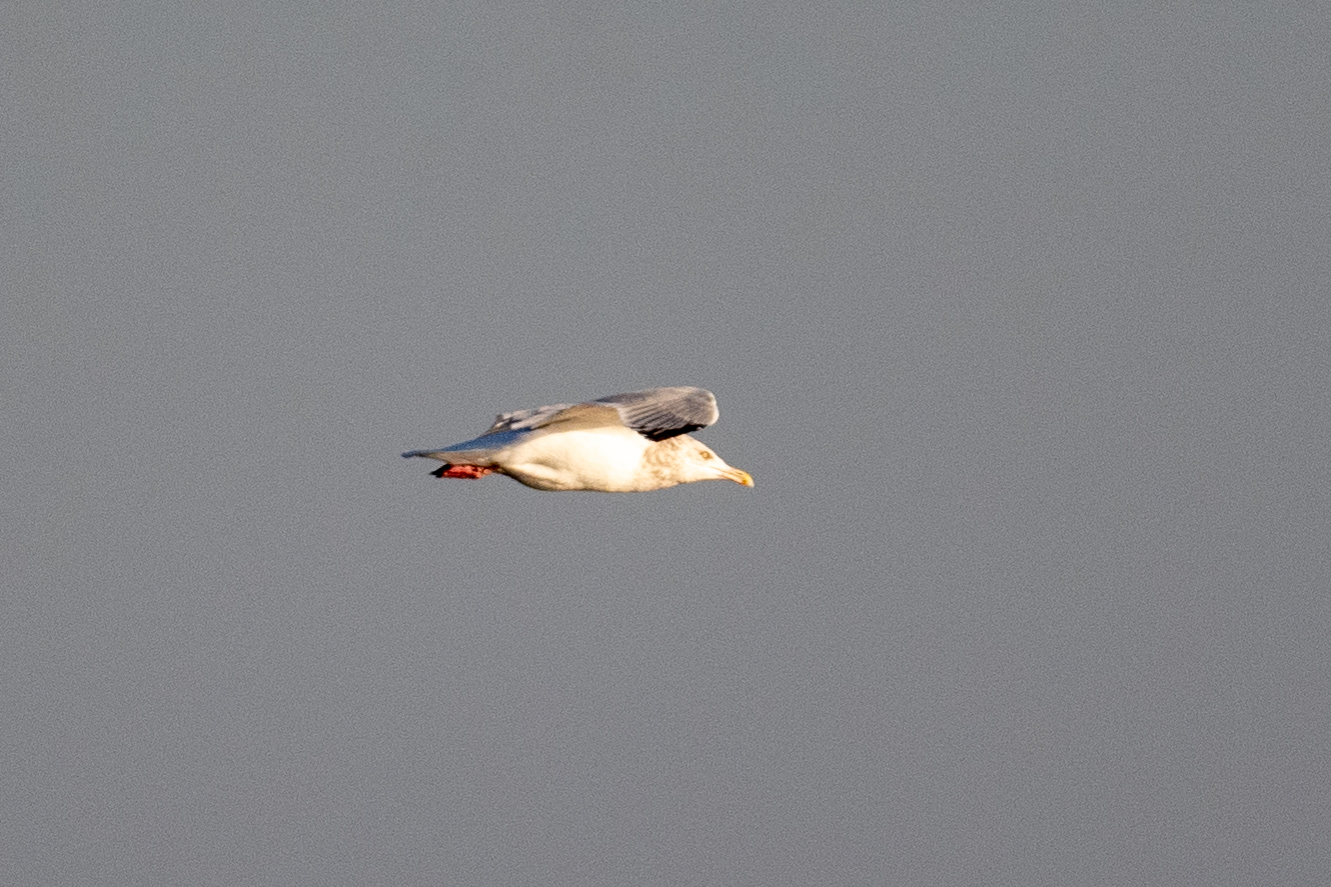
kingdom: Animalia
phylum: Chordata
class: Aves
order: Charadriiformes
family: Laridae
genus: Larus
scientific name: Larus argentatus
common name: Herring gull
